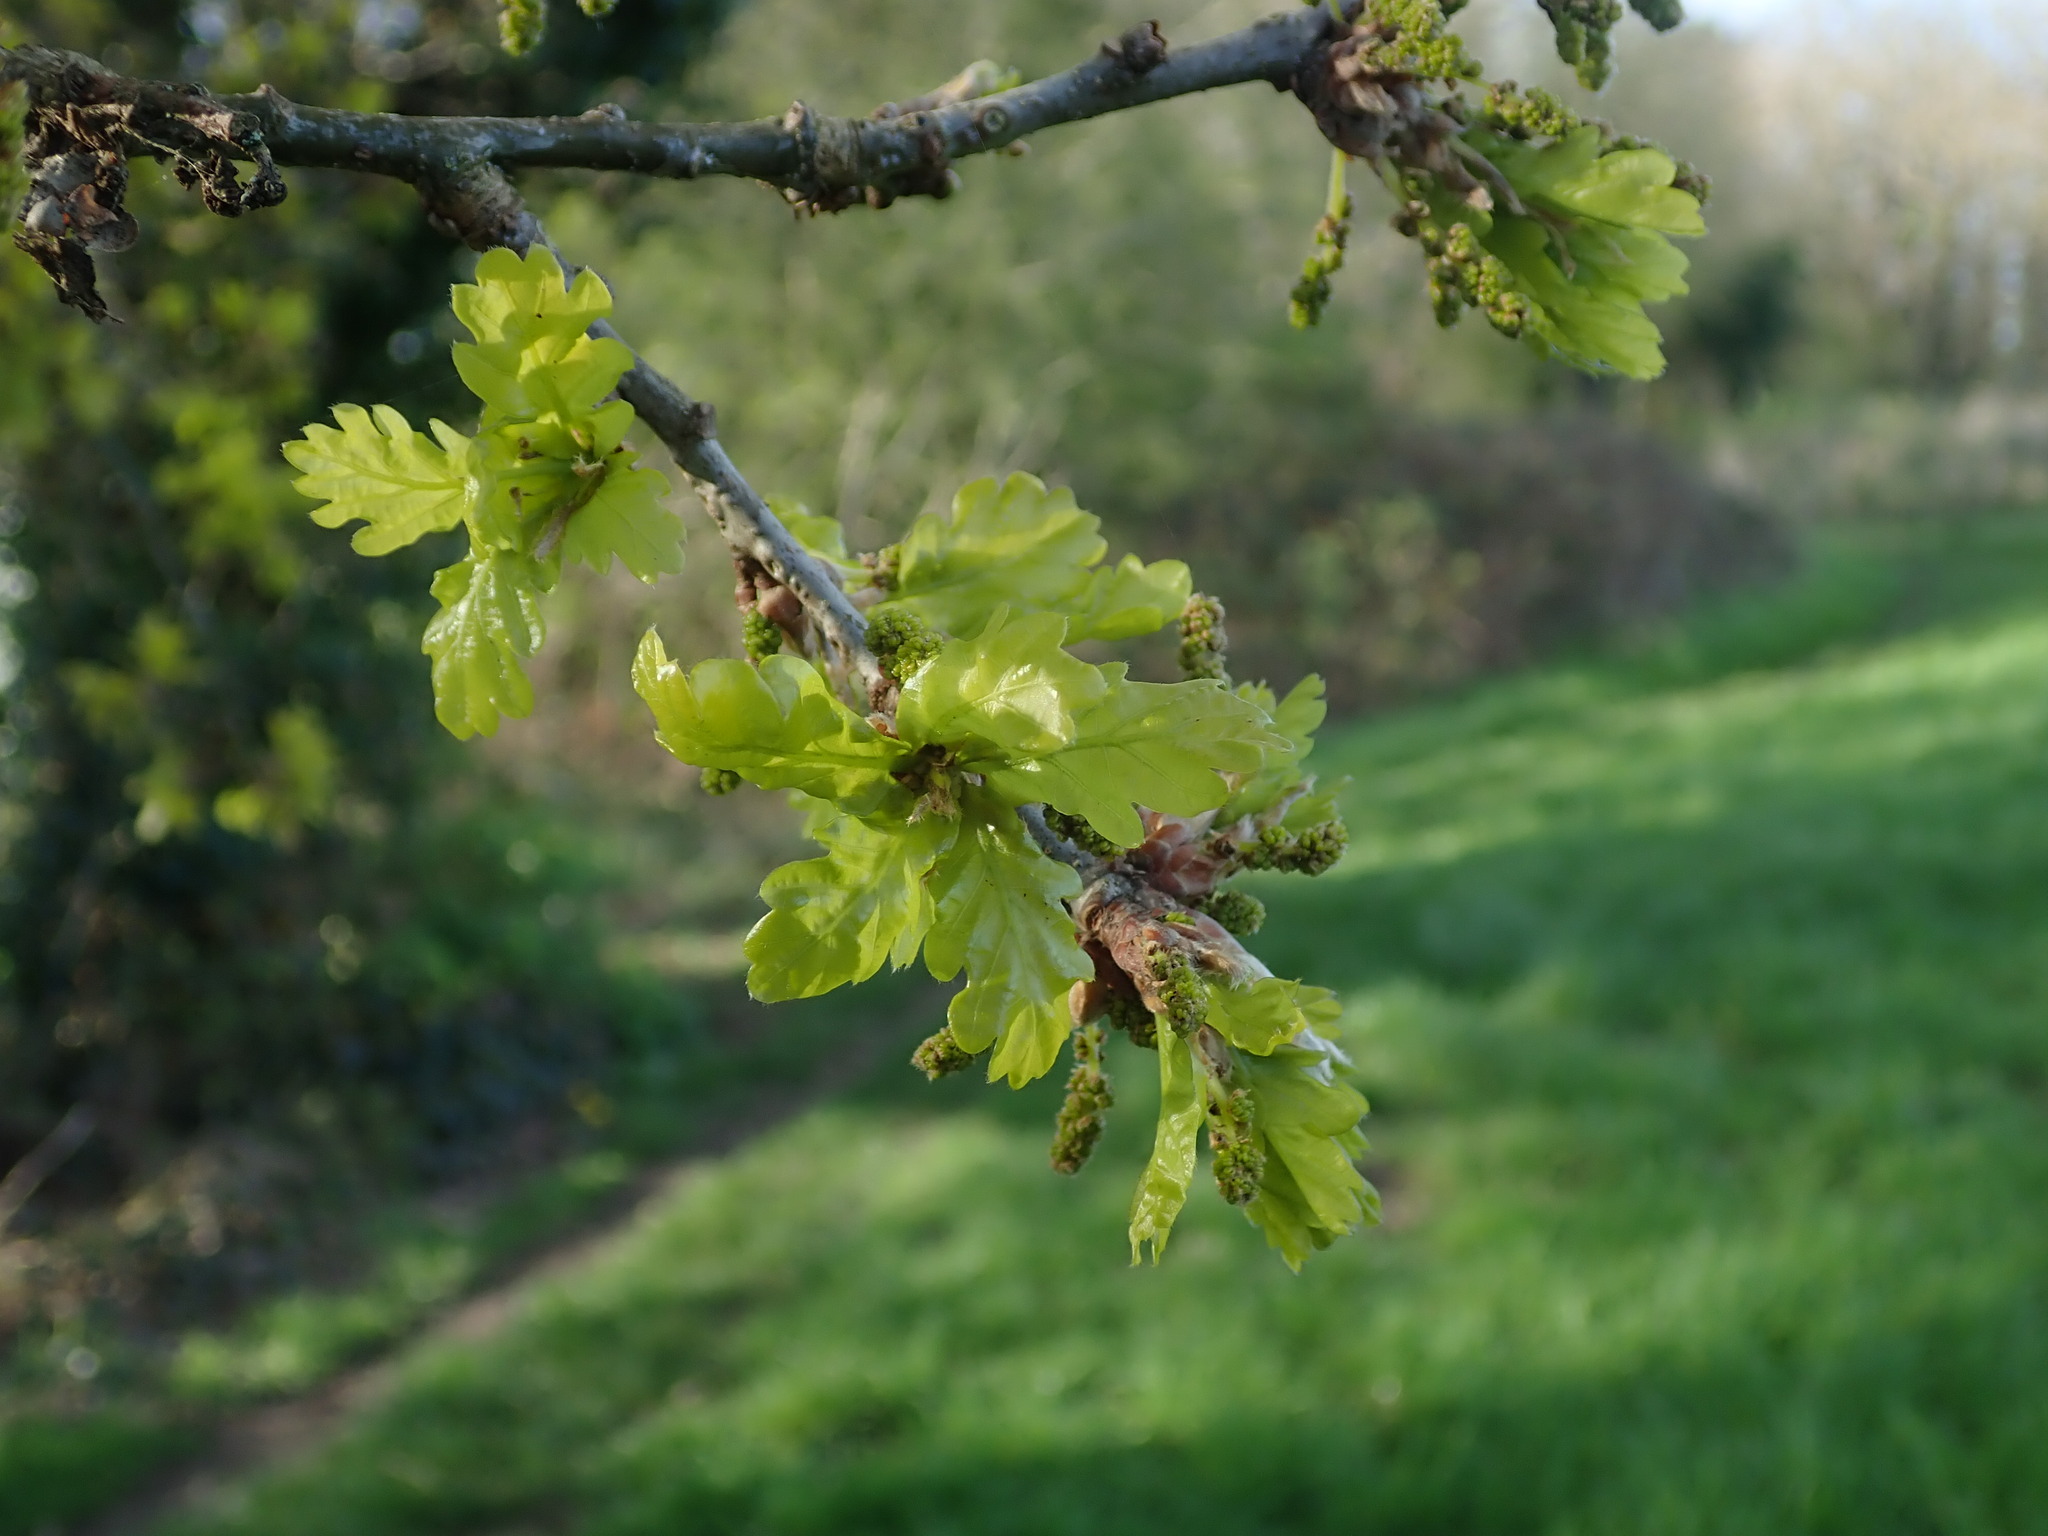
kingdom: Plantae
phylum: Tracheophyta
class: Magnoliopsida
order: Fagales
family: Fagaceae
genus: Quercus
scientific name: Quercus robur
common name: Pedunculate oak
